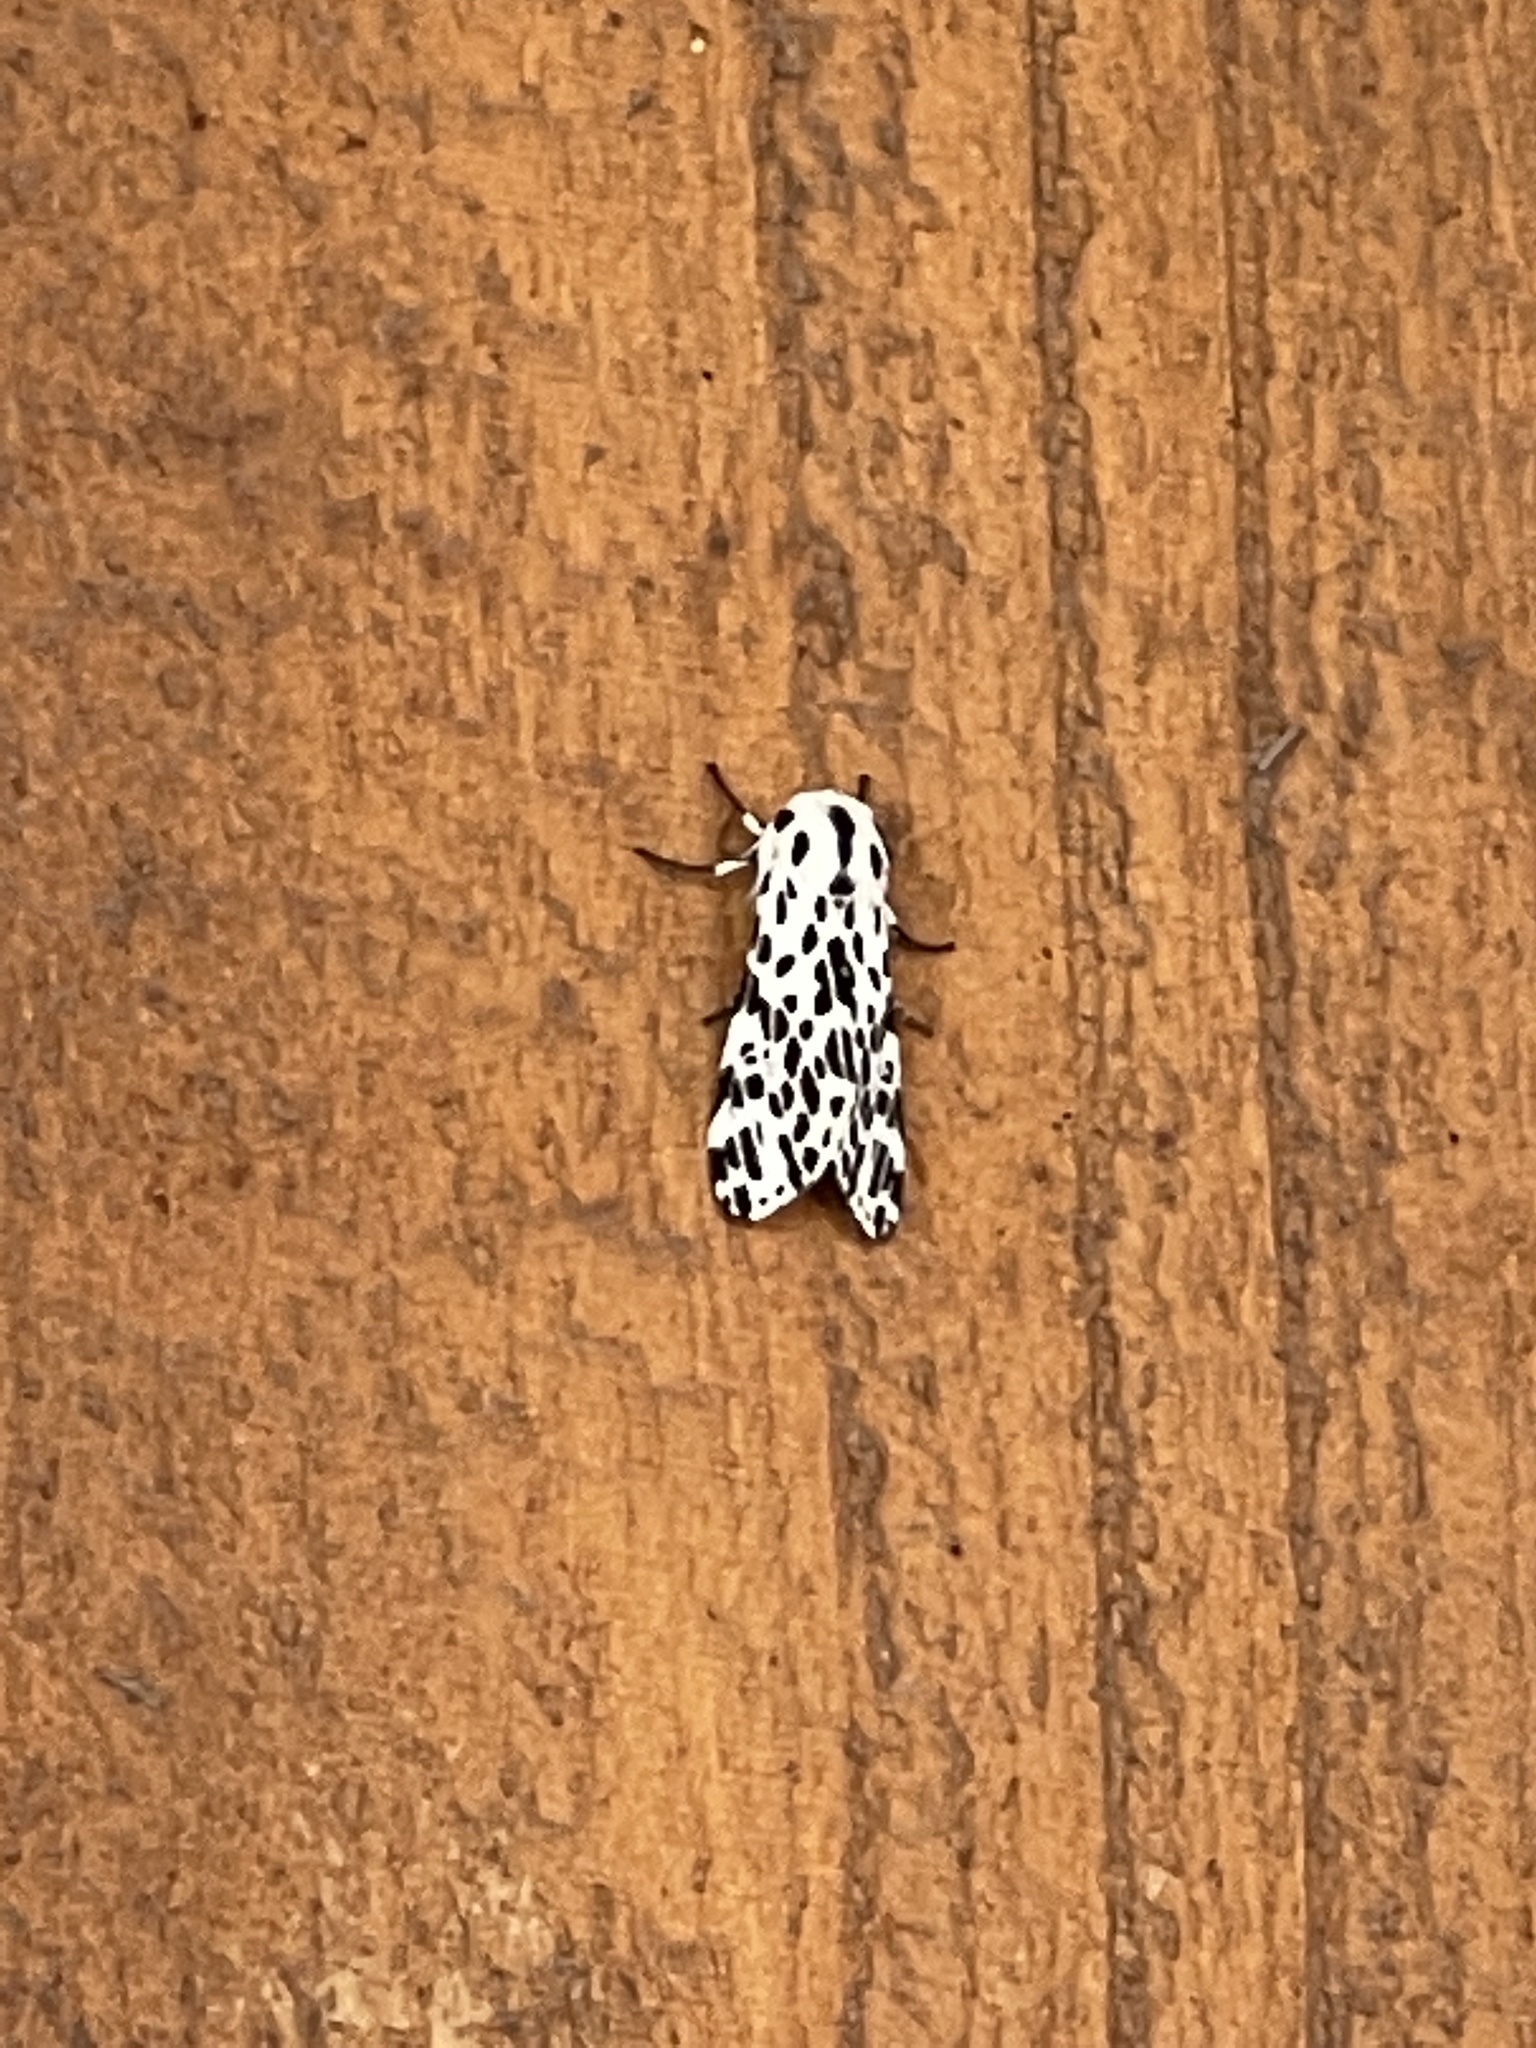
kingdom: Animalia
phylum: Arthropoda
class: Insecta
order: Lepidoptera
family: Erebidae
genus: Hypercompe
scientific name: Hypercompe permaculata
